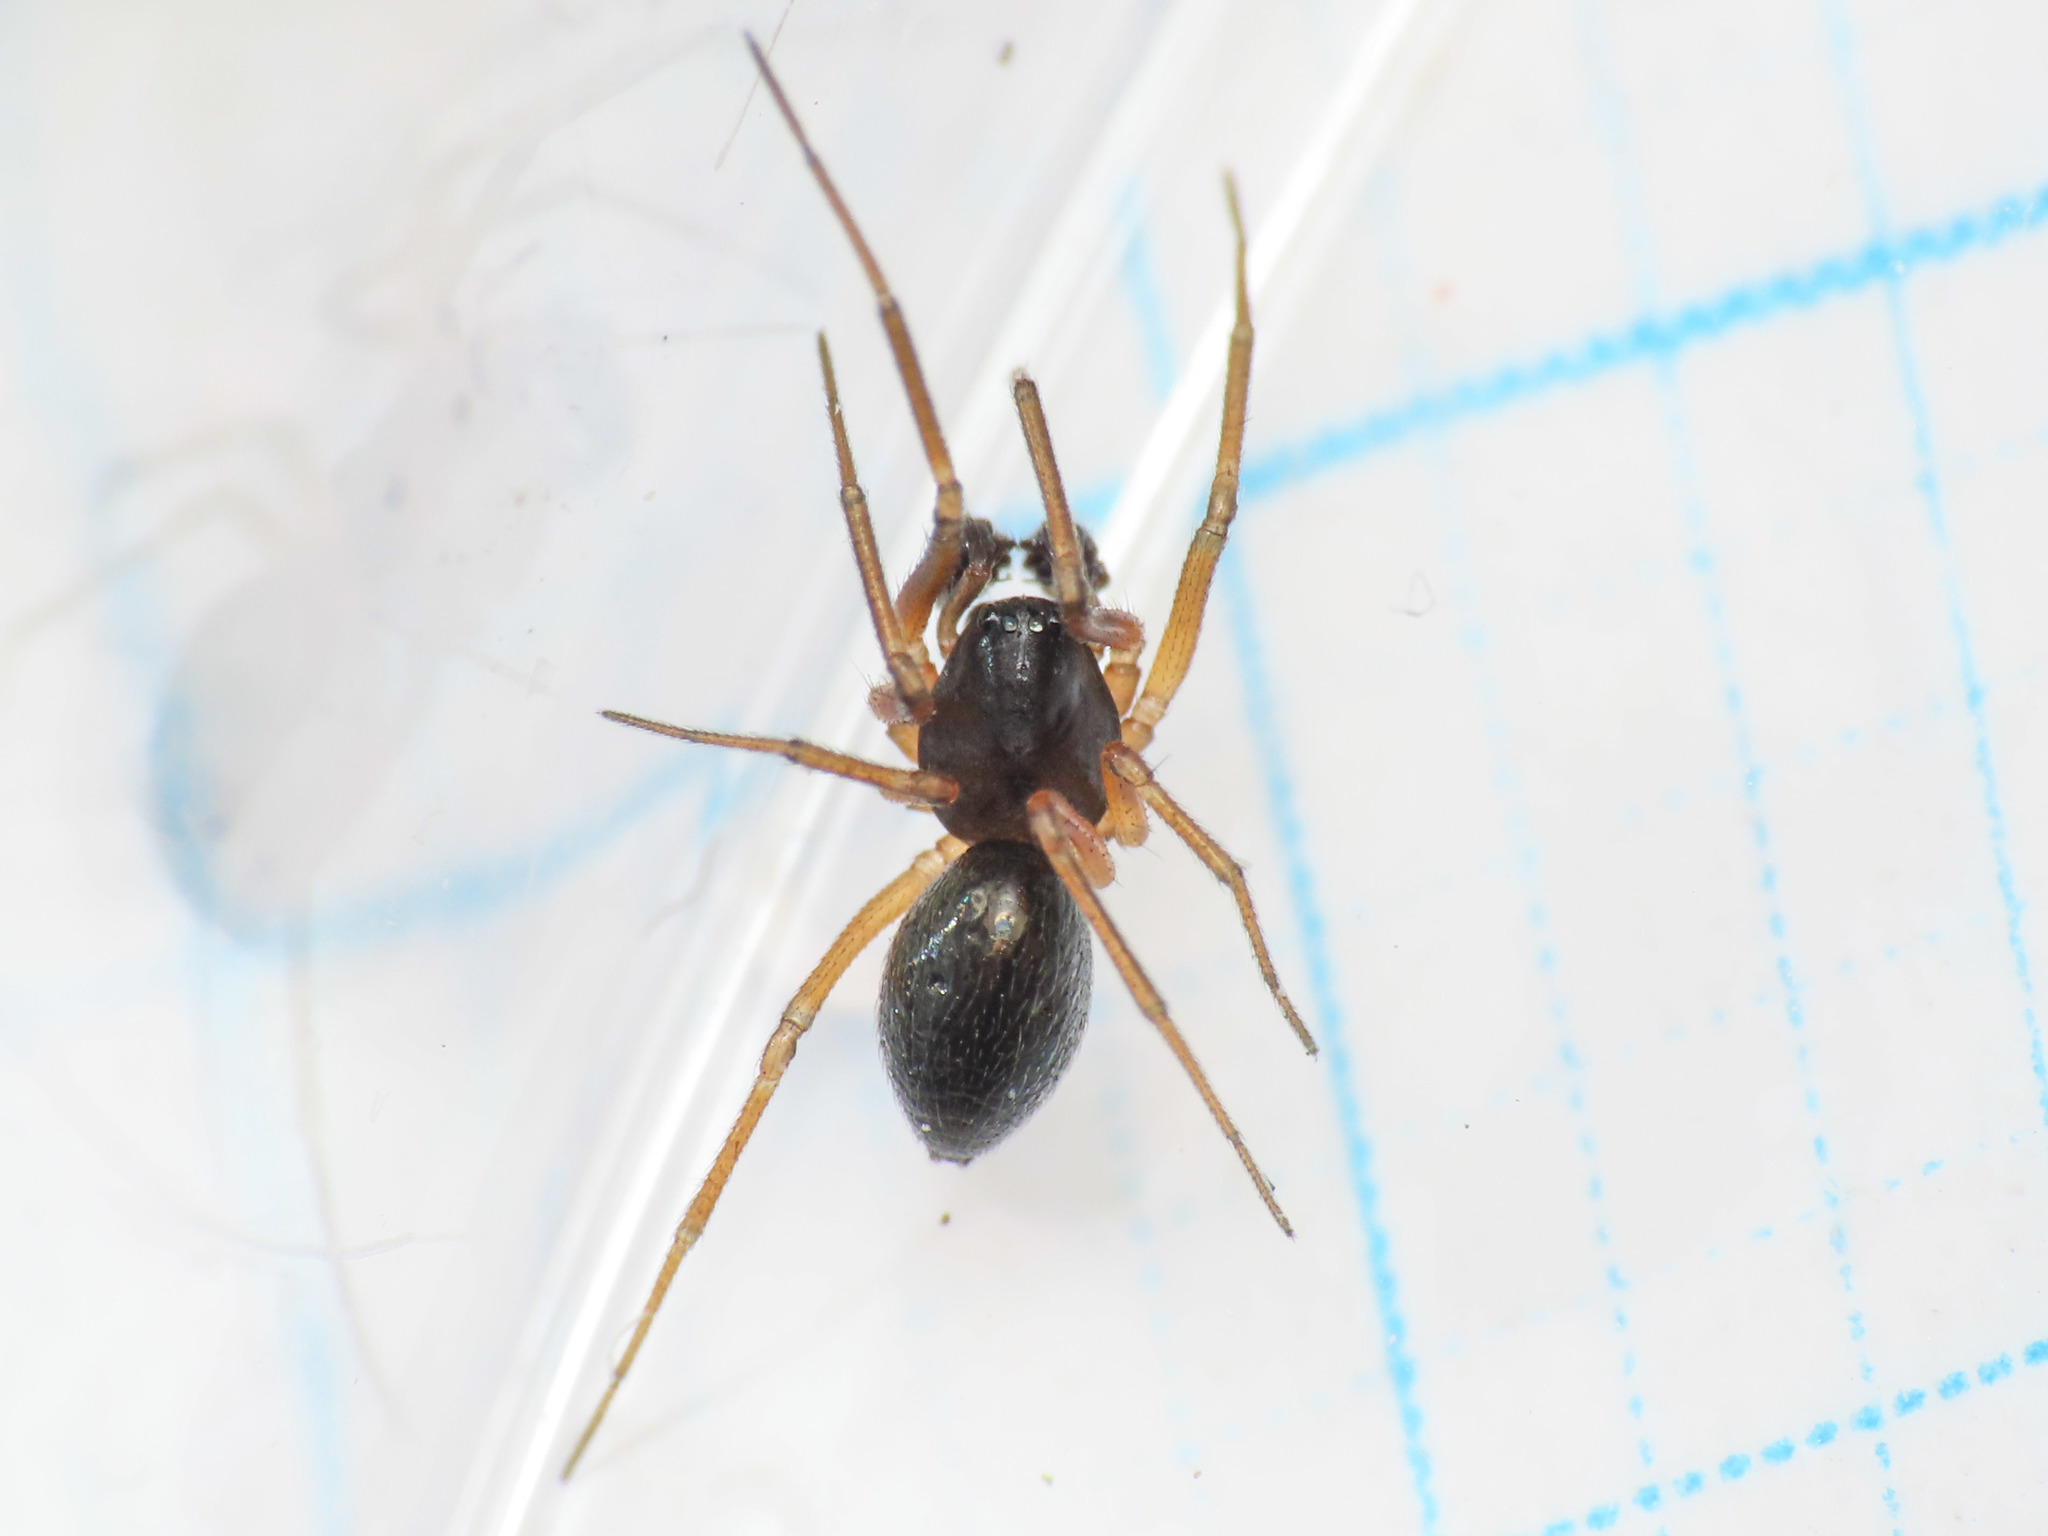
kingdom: Animalia
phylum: Arthropoda
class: Arachnida
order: Araneae
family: Linyphiidae
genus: Trichoncus
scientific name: Trichoncus auritus
